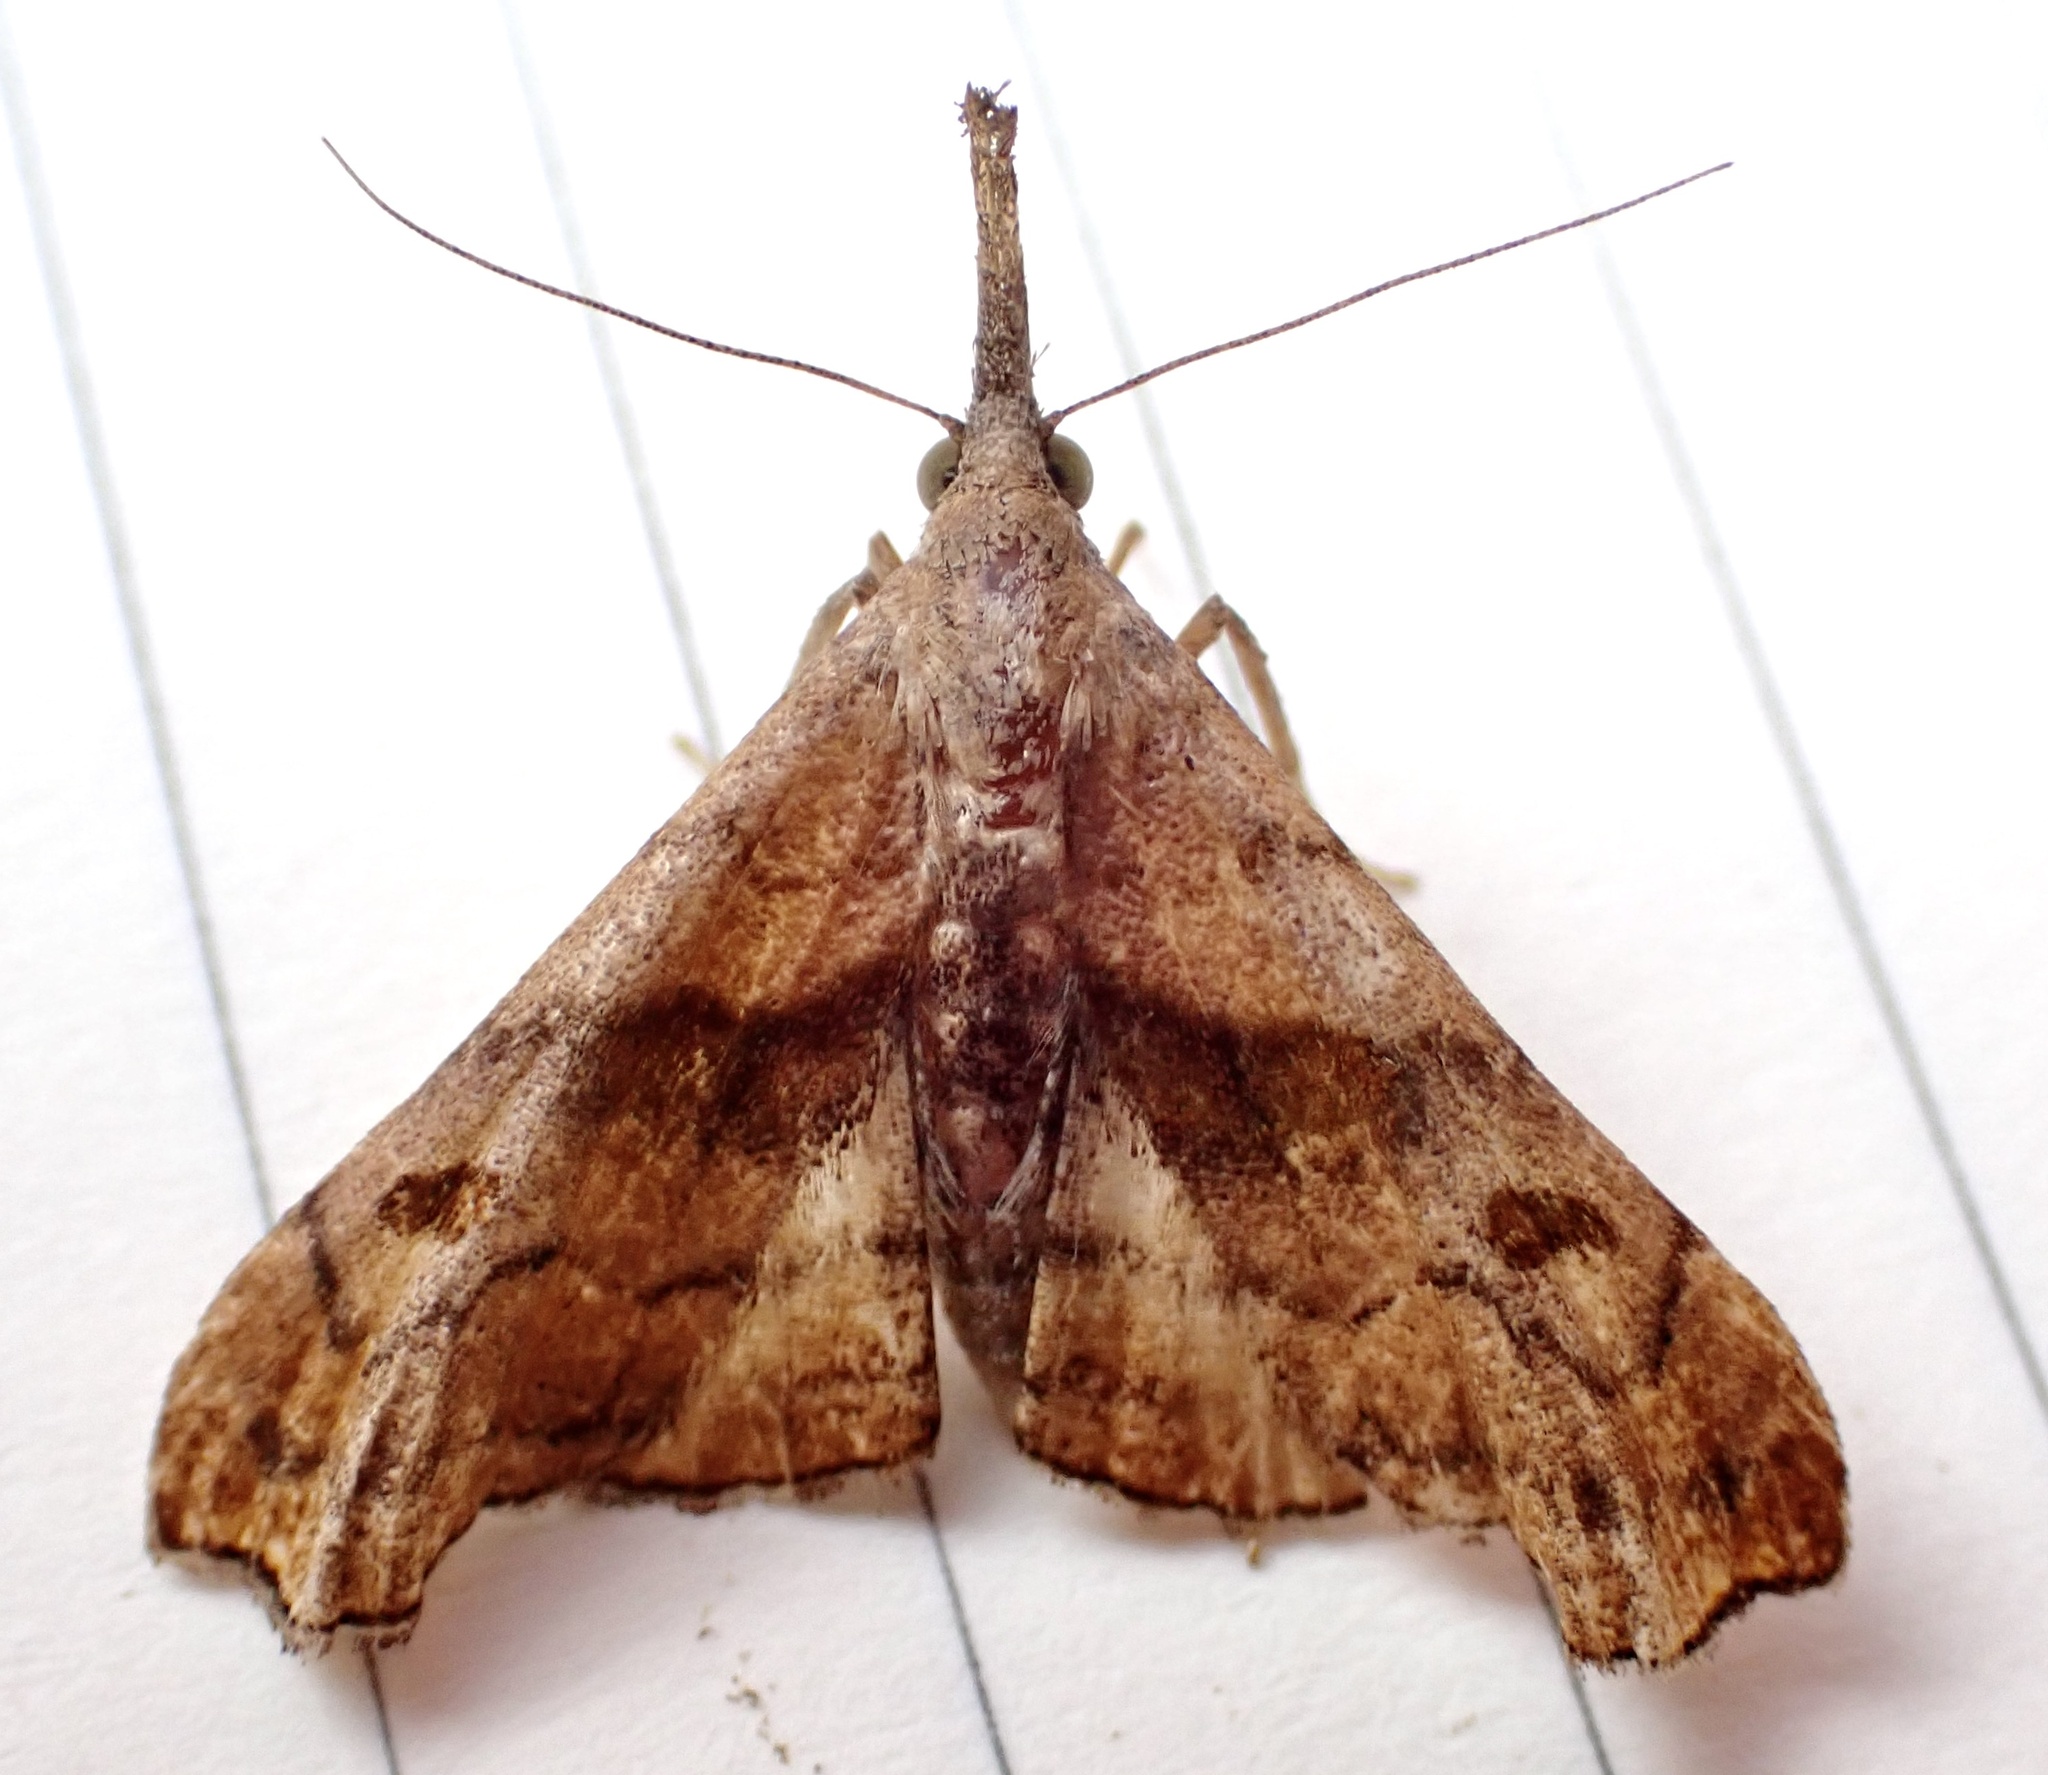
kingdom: Animalia
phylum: Arthropoda
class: Insecta
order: Lepidoptera
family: Erebidae
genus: Palthis
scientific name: Palthis angulalis
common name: Dark-spotted palthis moth
